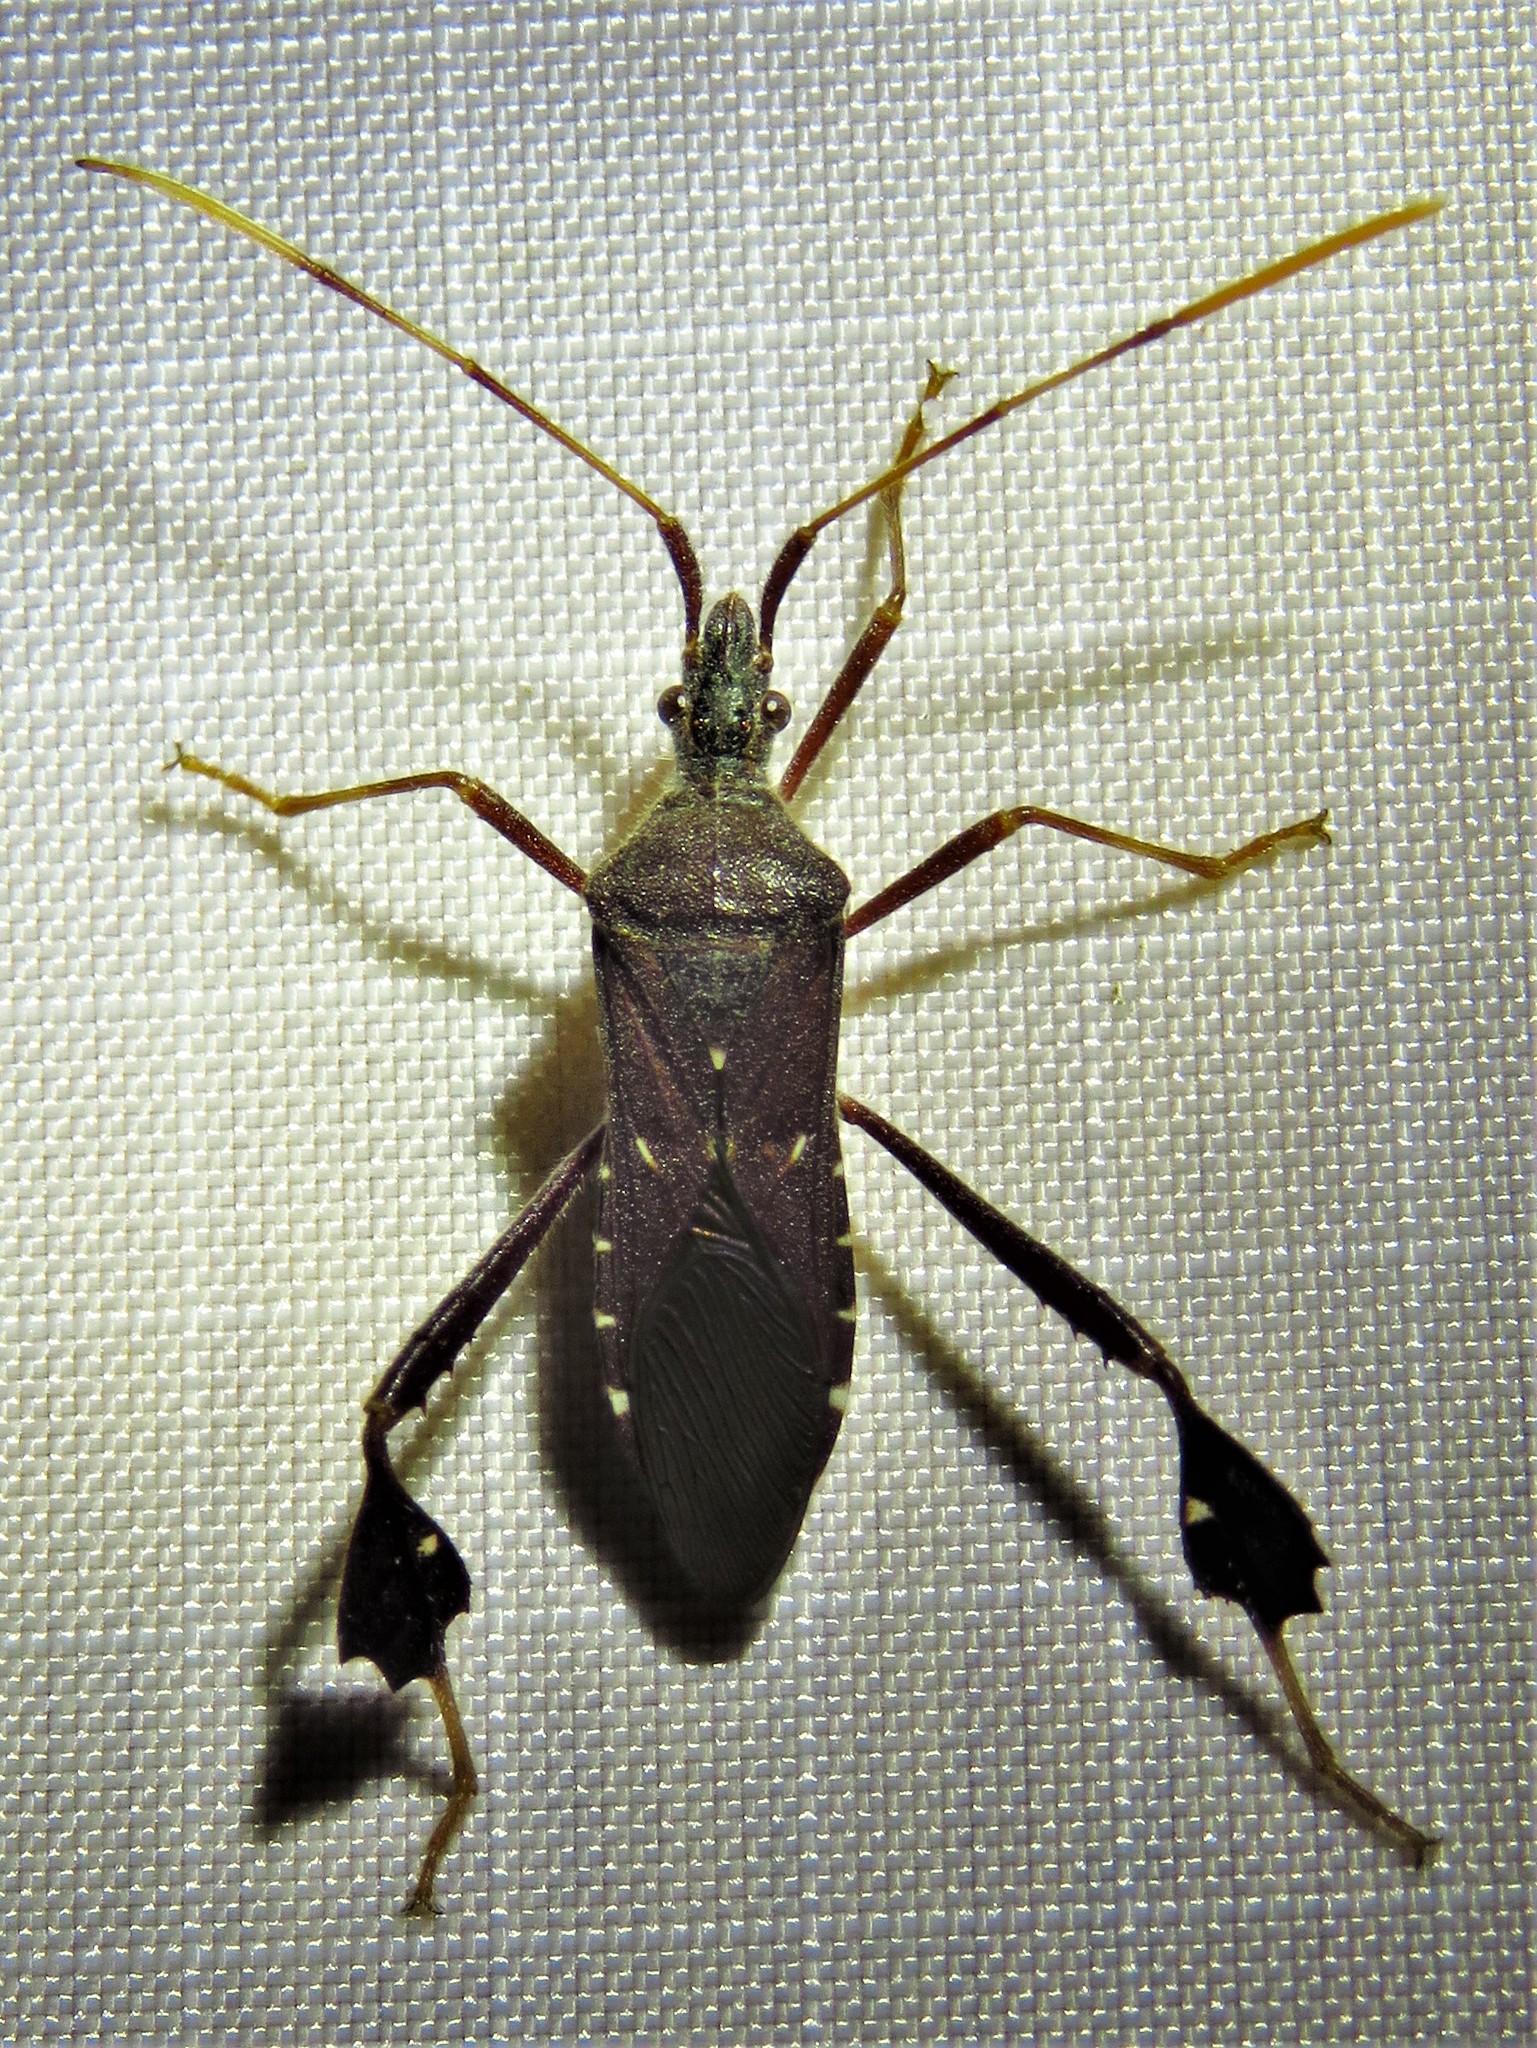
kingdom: Animalia
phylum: Arthropoda
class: Insecta
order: Hemiptera
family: Coreidae
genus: Leptoglossus
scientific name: Leptoglossus oppositus
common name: Northern leaf-footed bug
